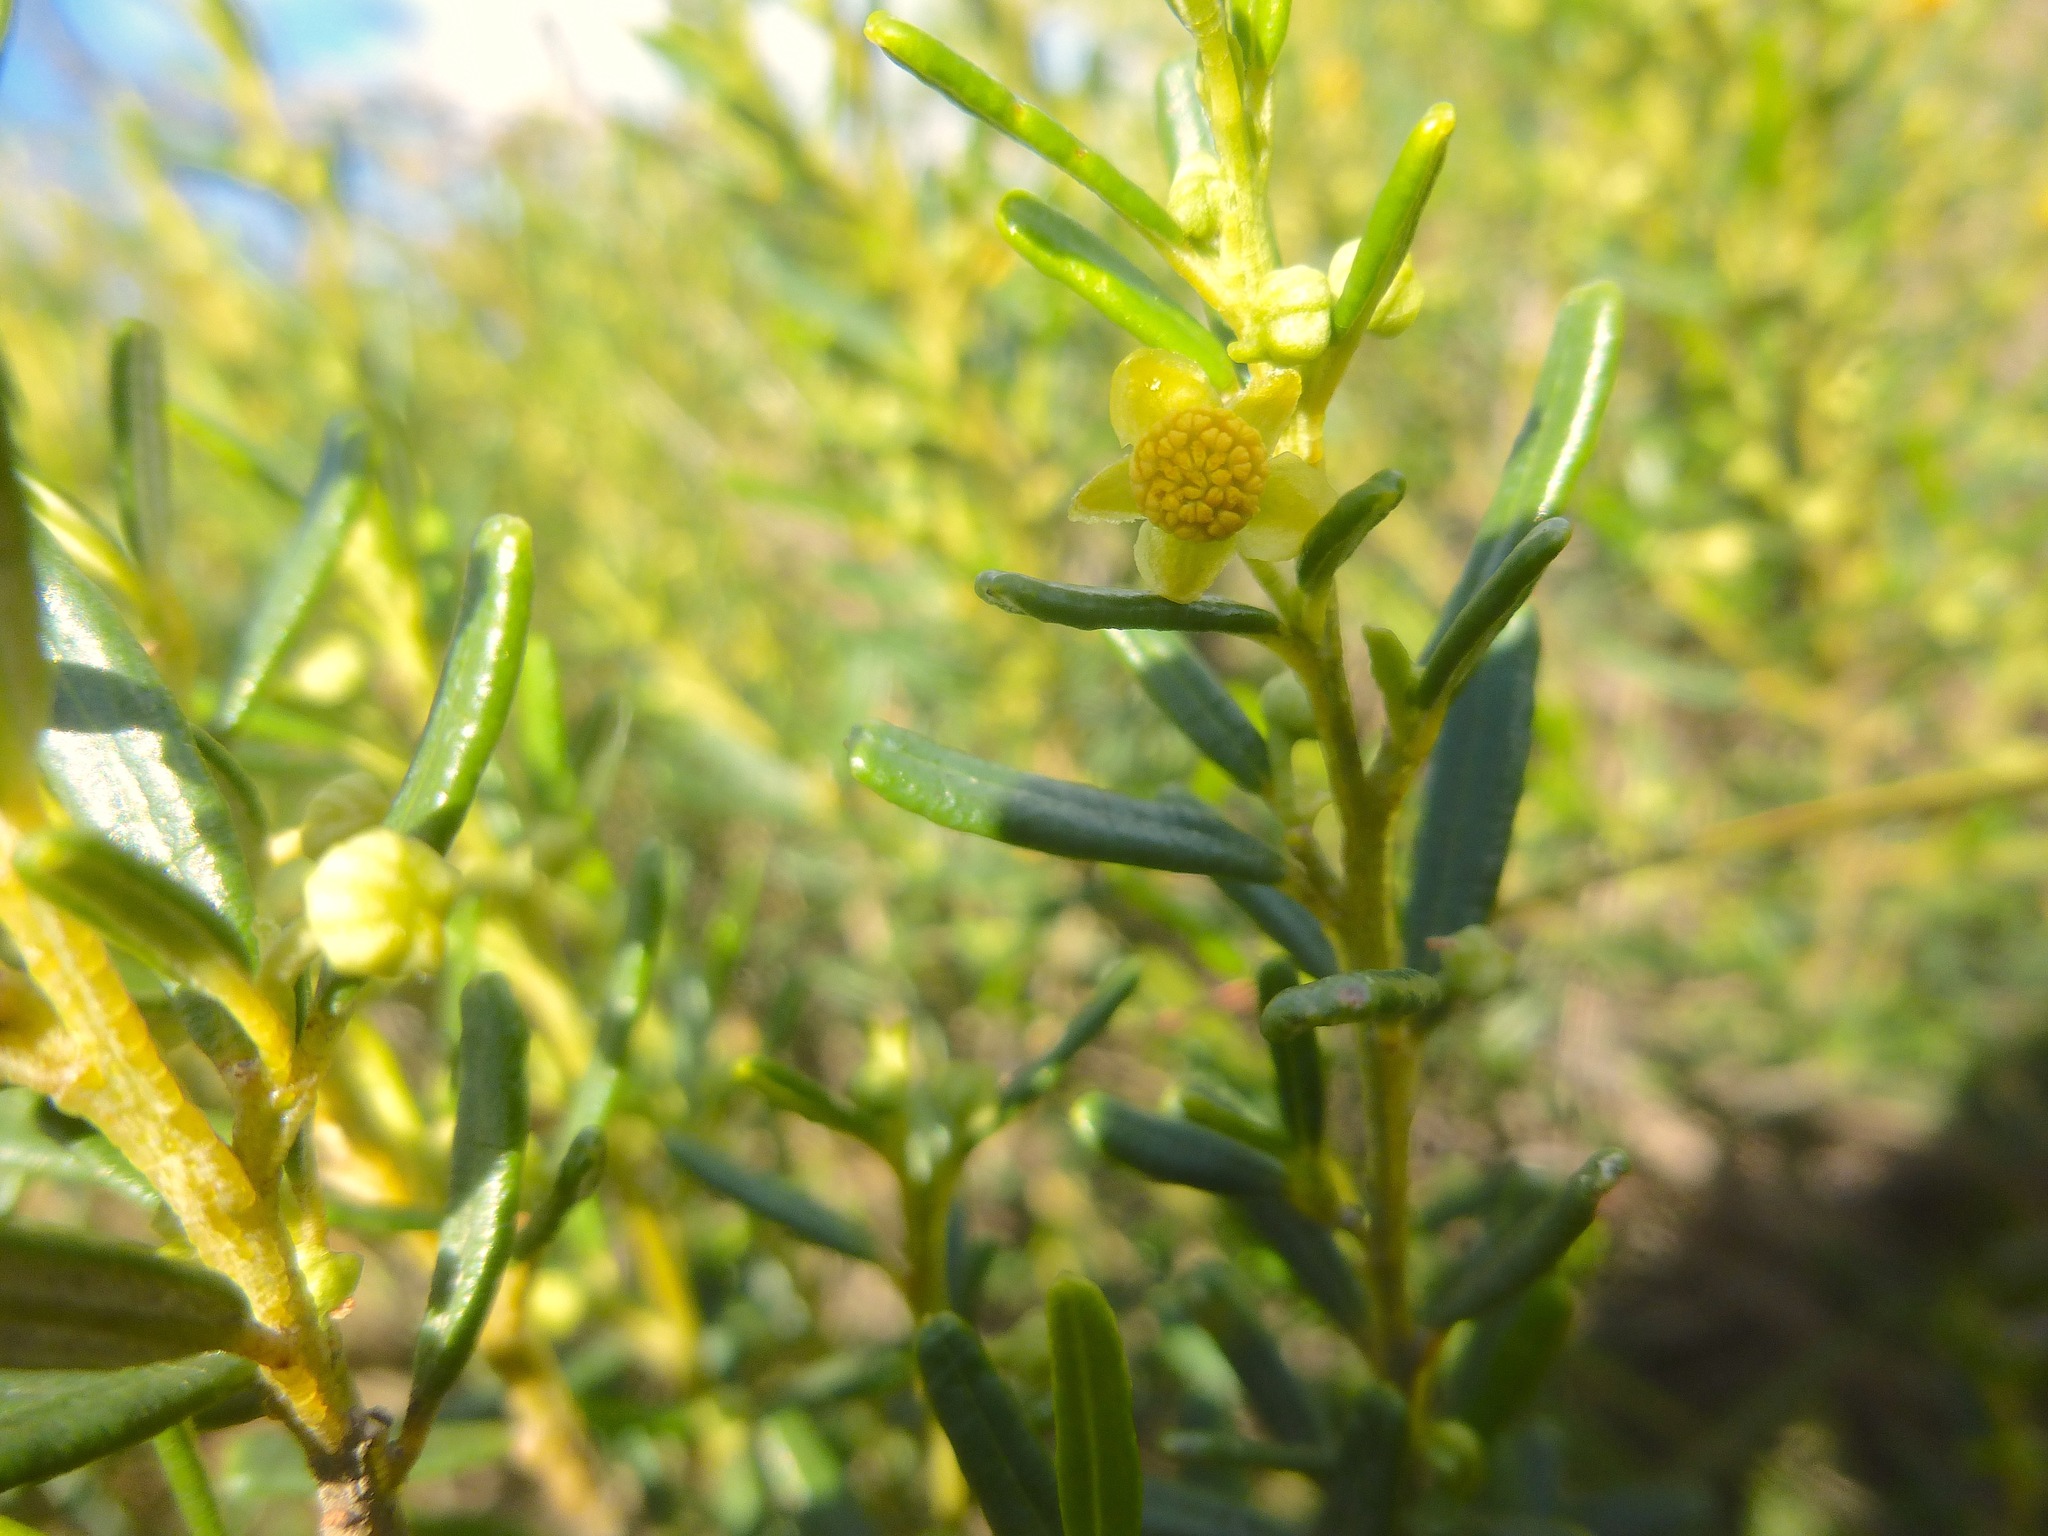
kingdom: Plantae
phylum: Tracheophyta
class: Magnoliopsida
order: Malpighiales
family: Euphorbiaceae
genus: Beyeria
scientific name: Beyeria lechenaultii
